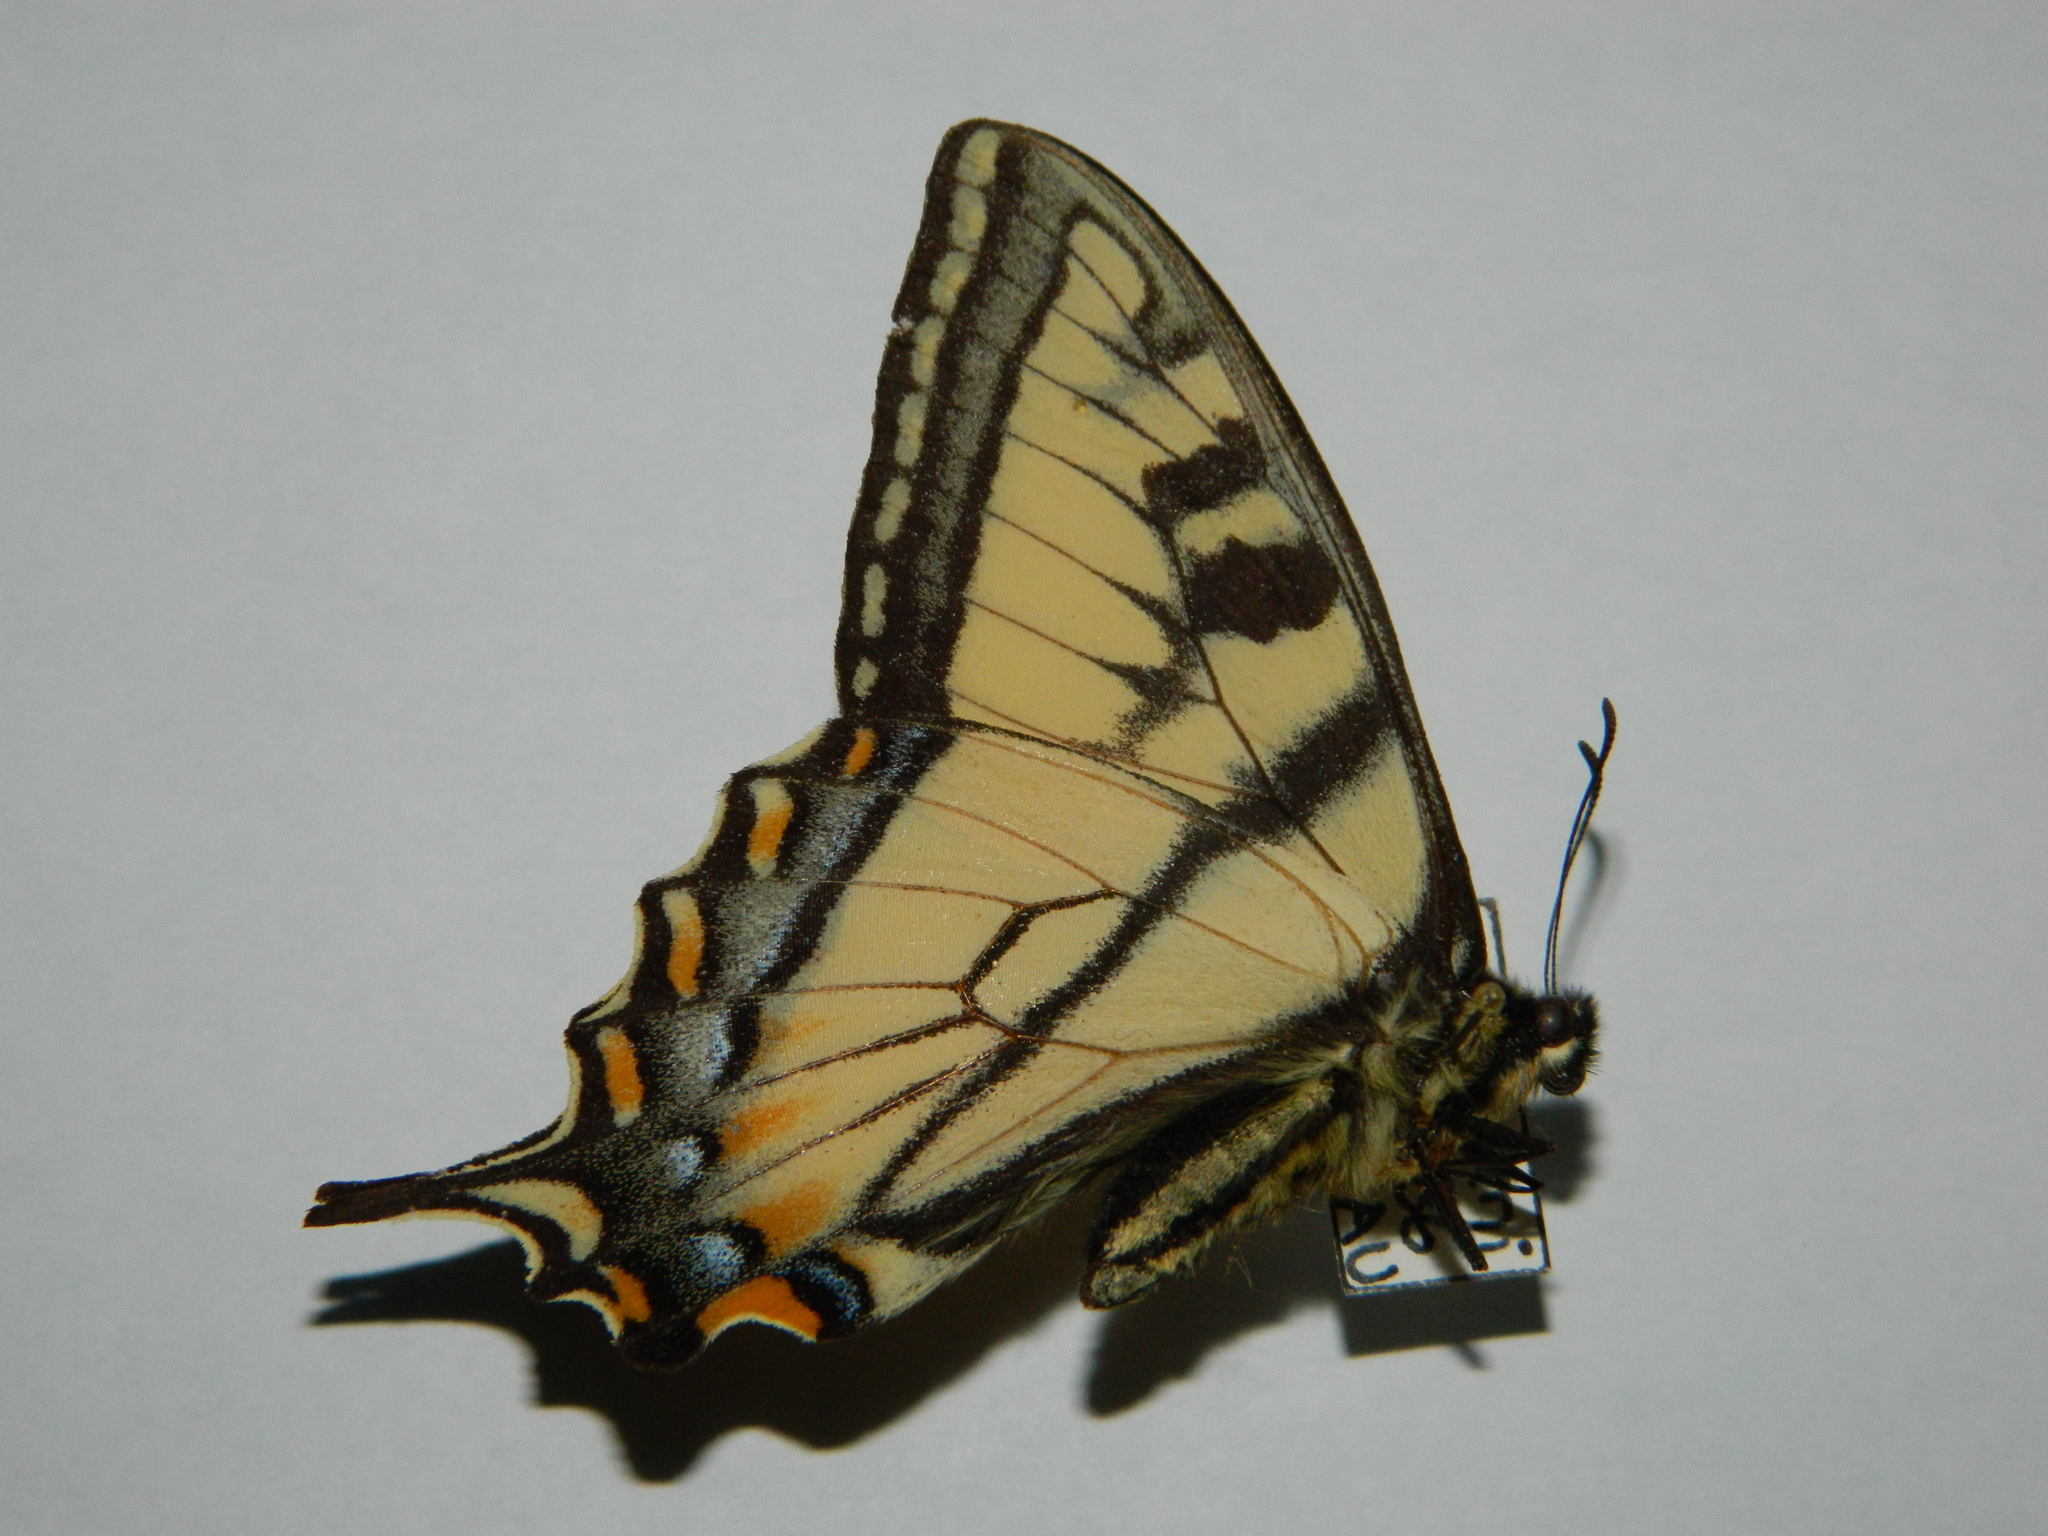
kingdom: Animalia
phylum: Arthropoda
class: Insecta
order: Lepidoptera
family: Papilionidae
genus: Papilio
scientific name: Papilio canadensis
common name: Canadian tiger swallowtail
